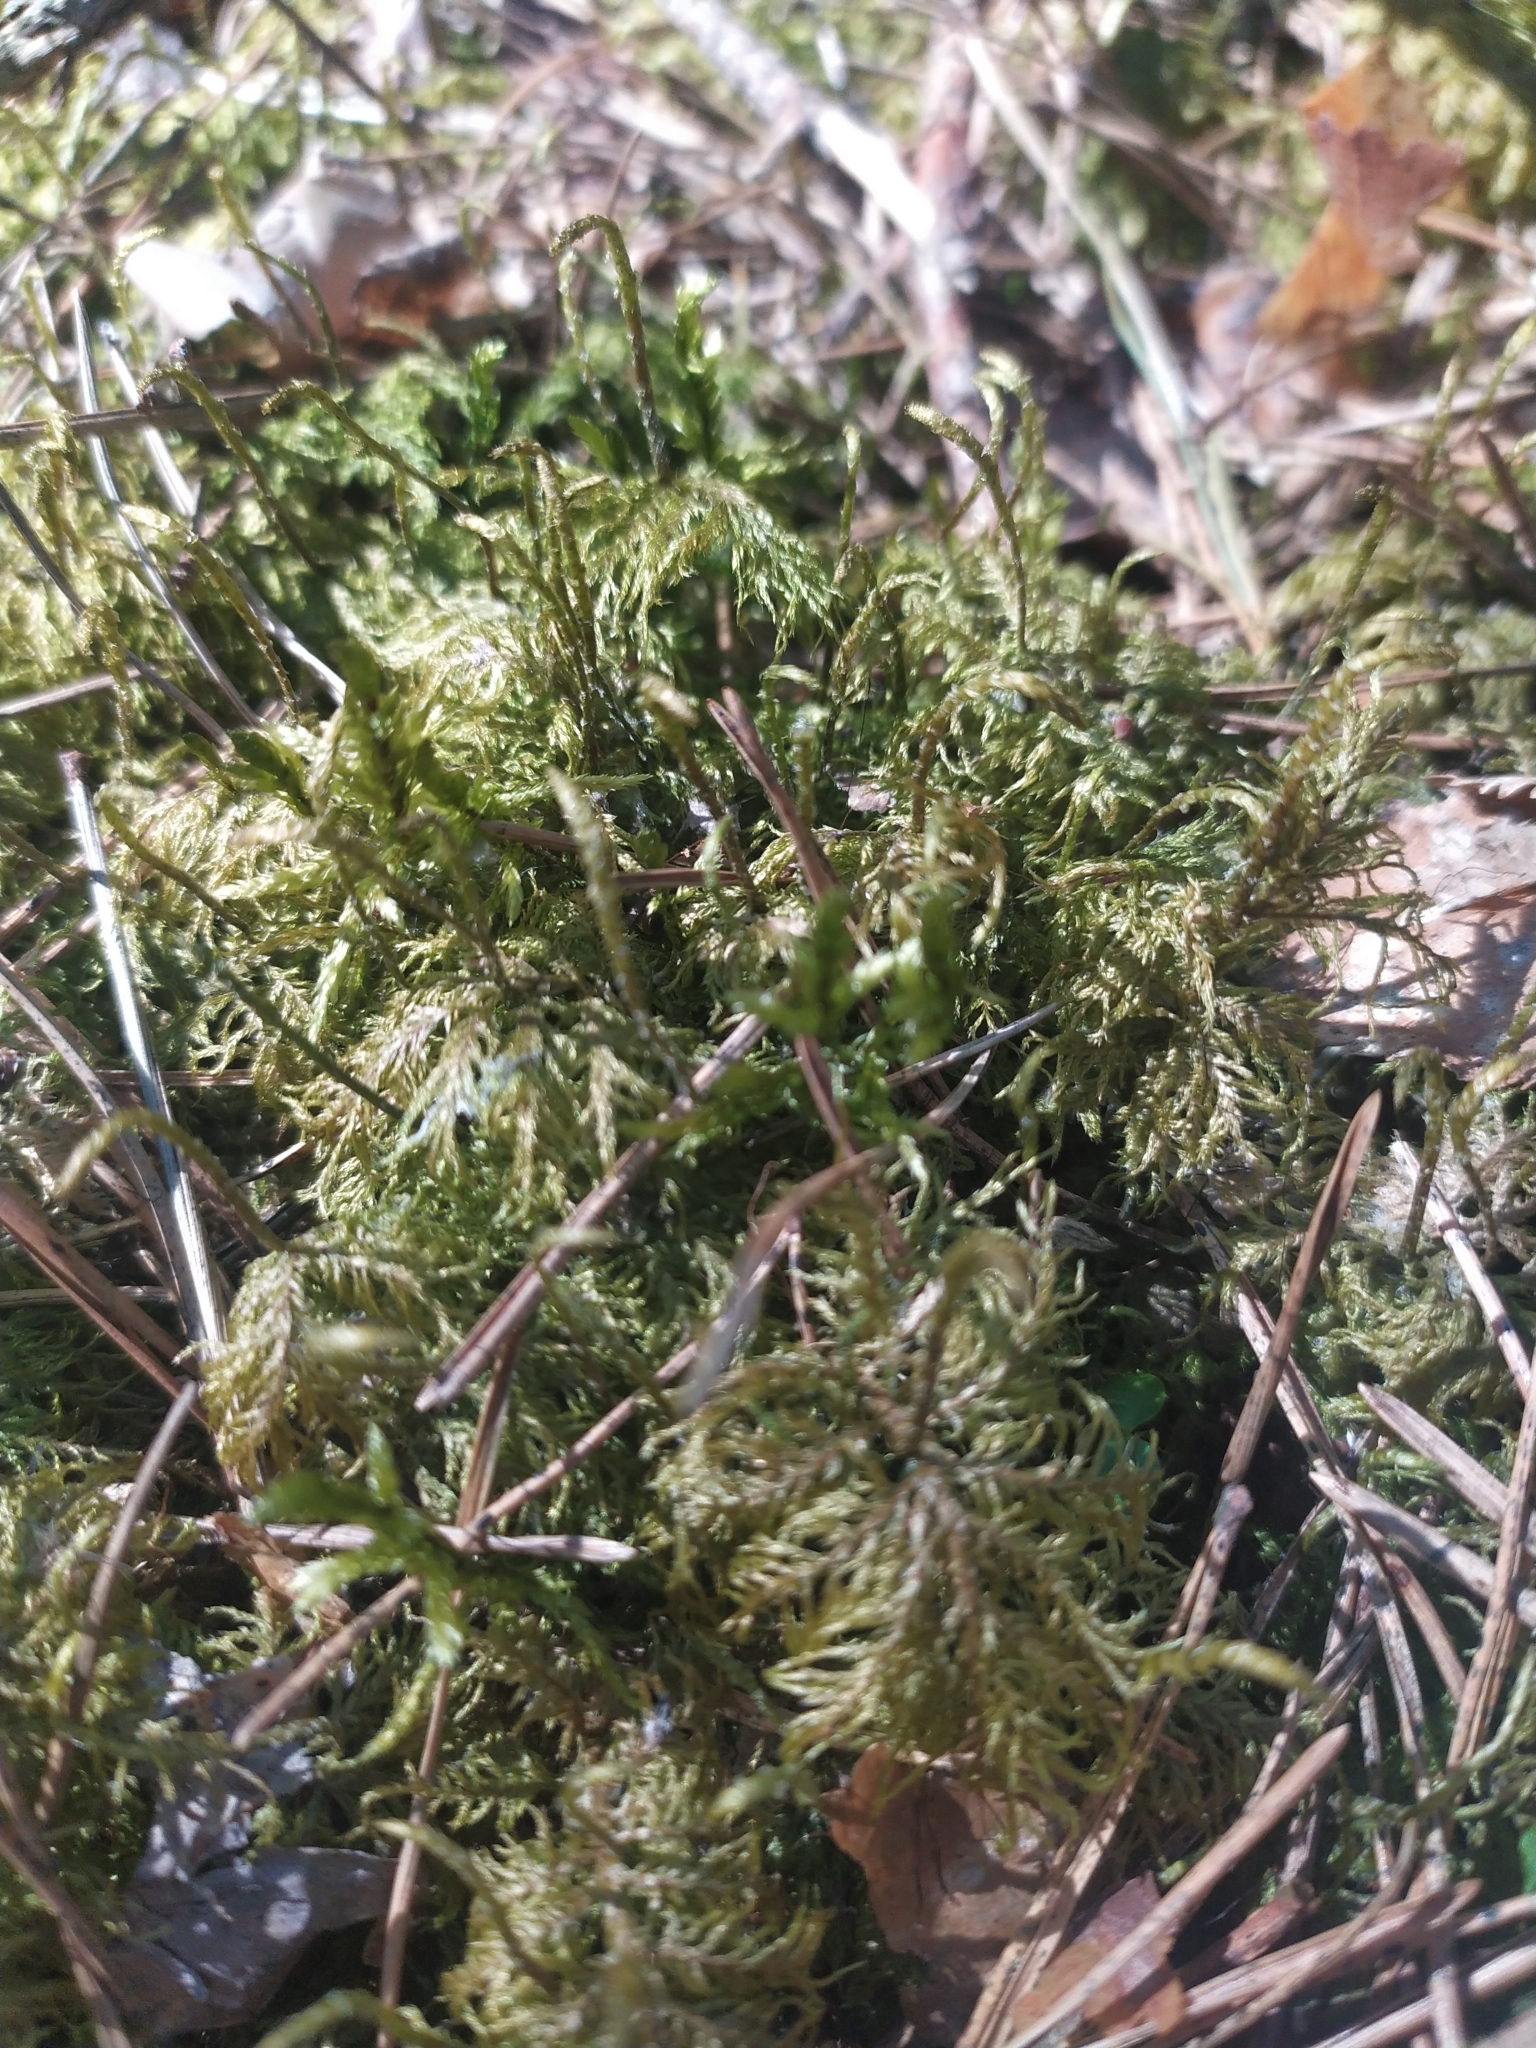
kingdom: Plantae
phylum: Bryophyta
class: Bryopsida
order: Hypnales
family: Hylocomiaceae
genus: Hylocomium
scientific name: Hylocomium splendens
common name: Stairstep moss
